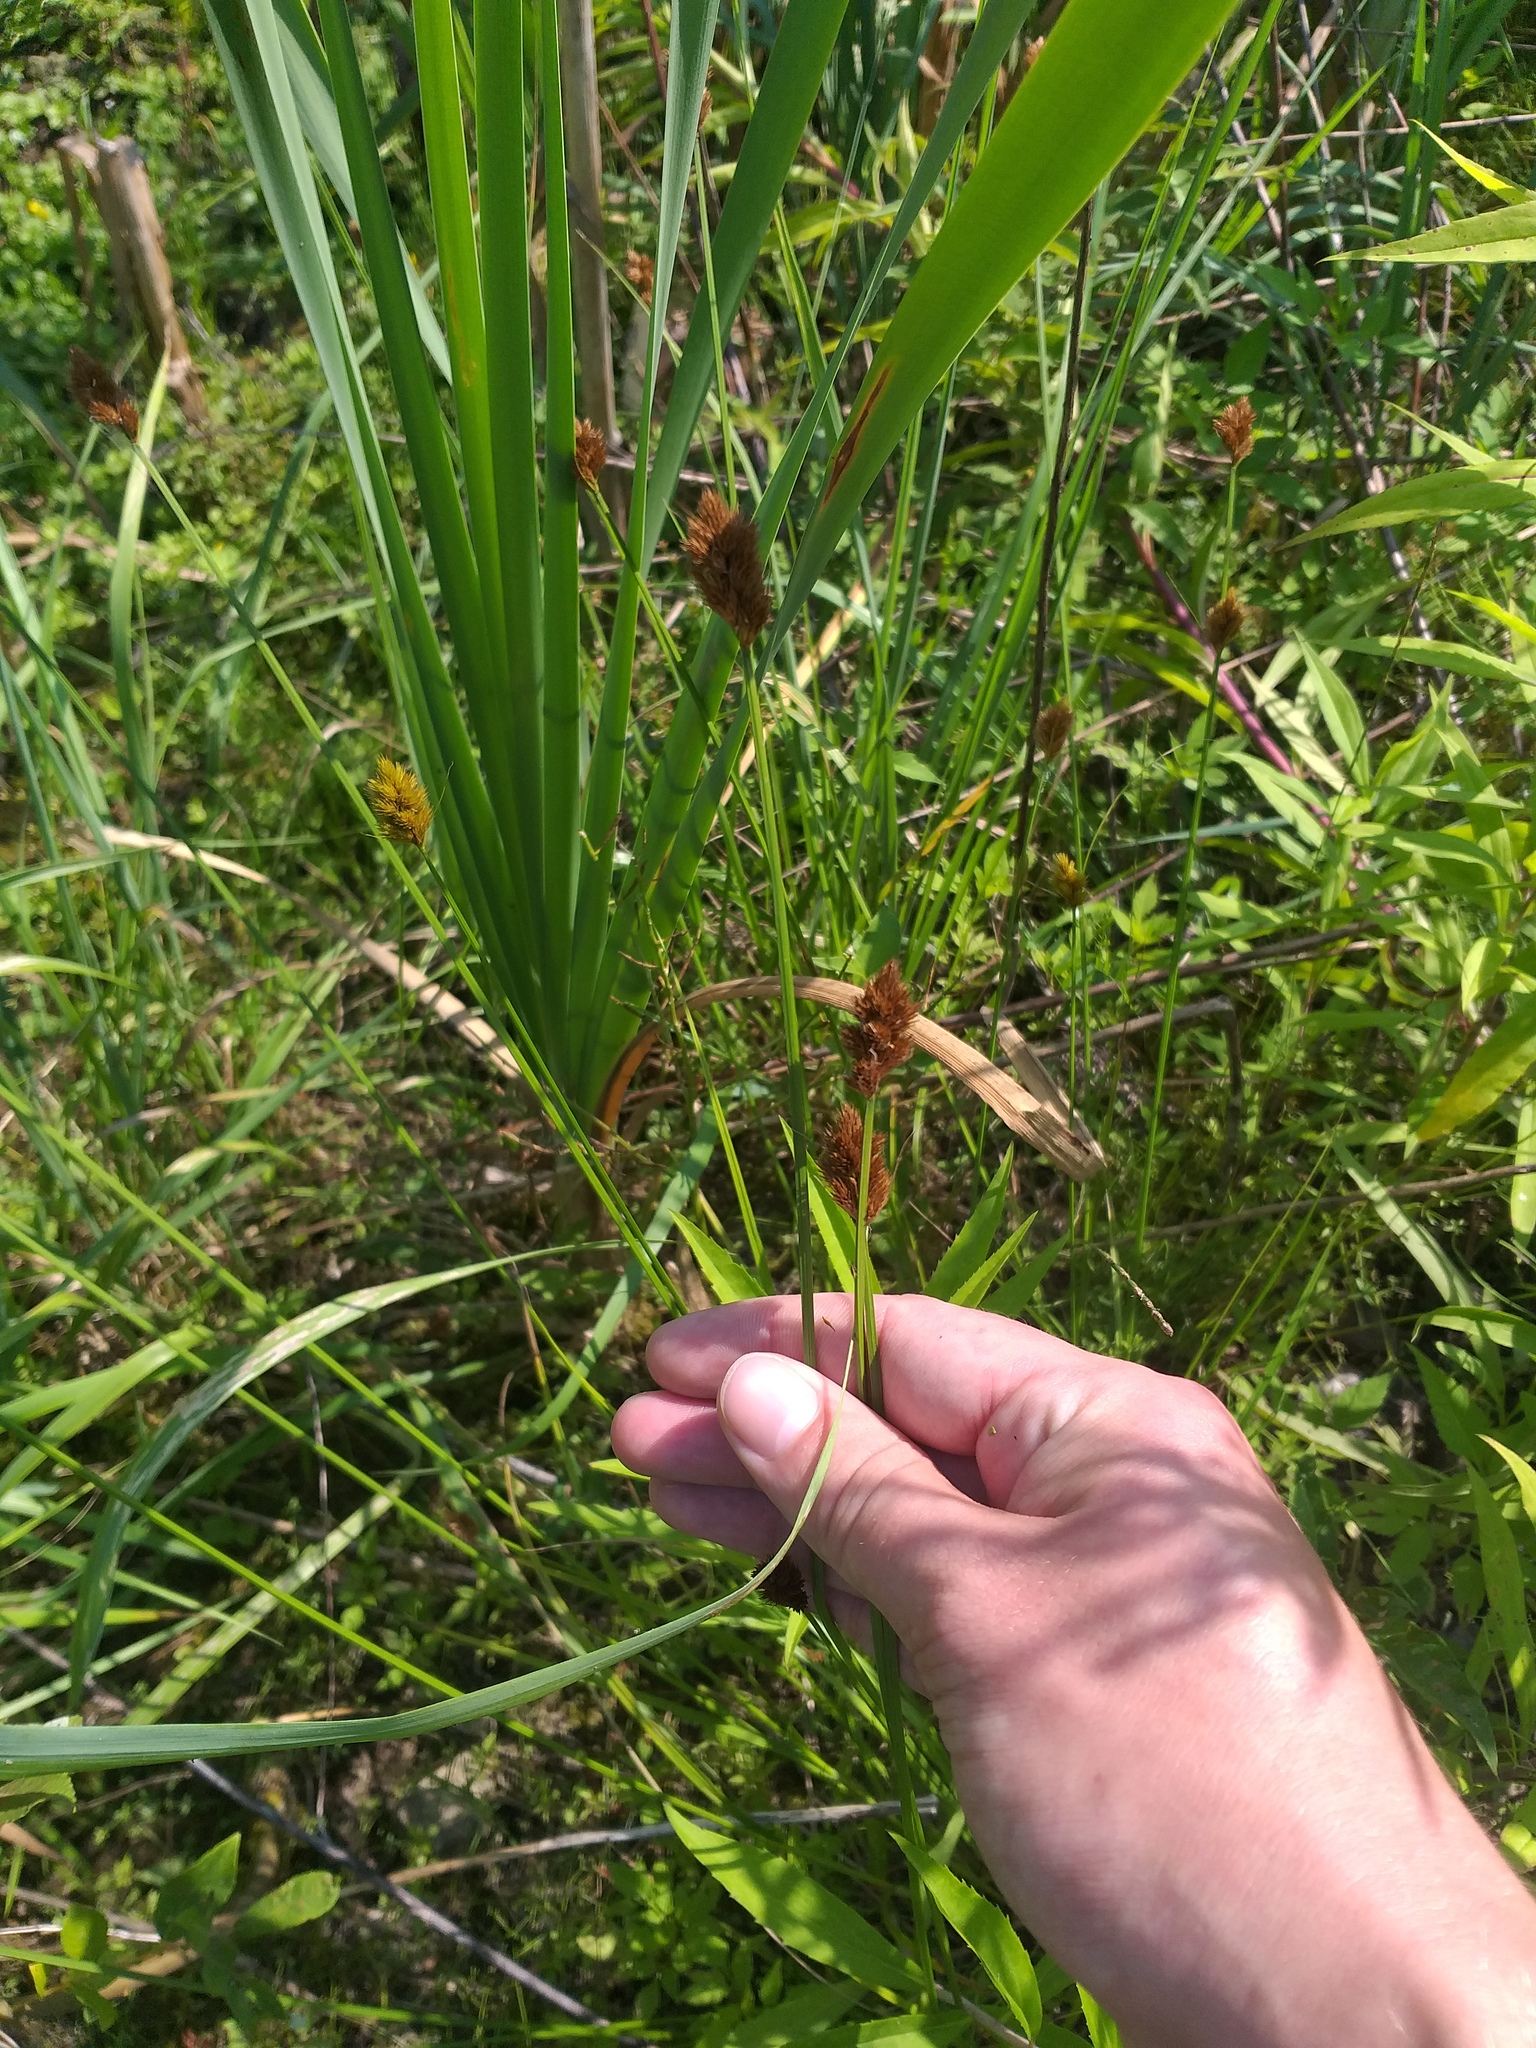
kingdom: Plantae
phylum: Tracheophyta
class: Liliopsida
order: Poales
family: Cyperaceae
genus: Carex
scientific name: Carex leporina
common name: Oval sedge
